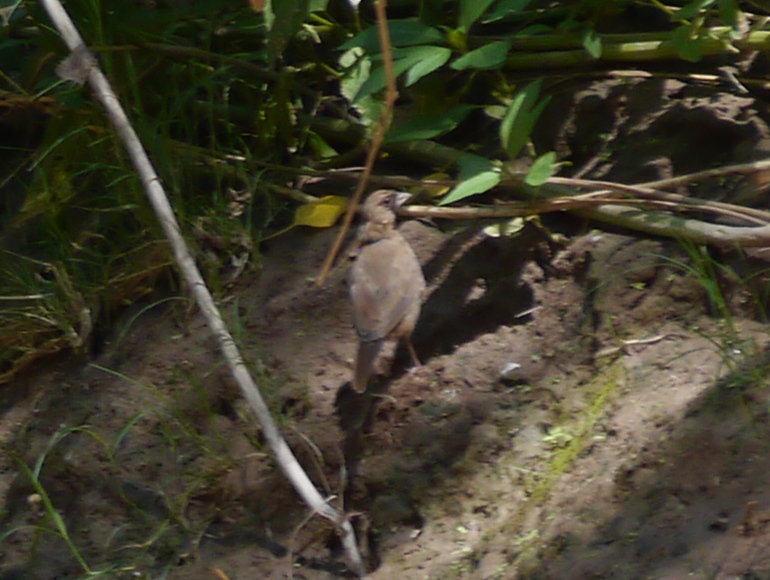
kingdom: Animalia
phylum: Chordata
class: Aves
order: Passeriformes
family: Passerellidae
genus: Melozone
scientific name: Melozone aberti
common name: Abert's towhee
